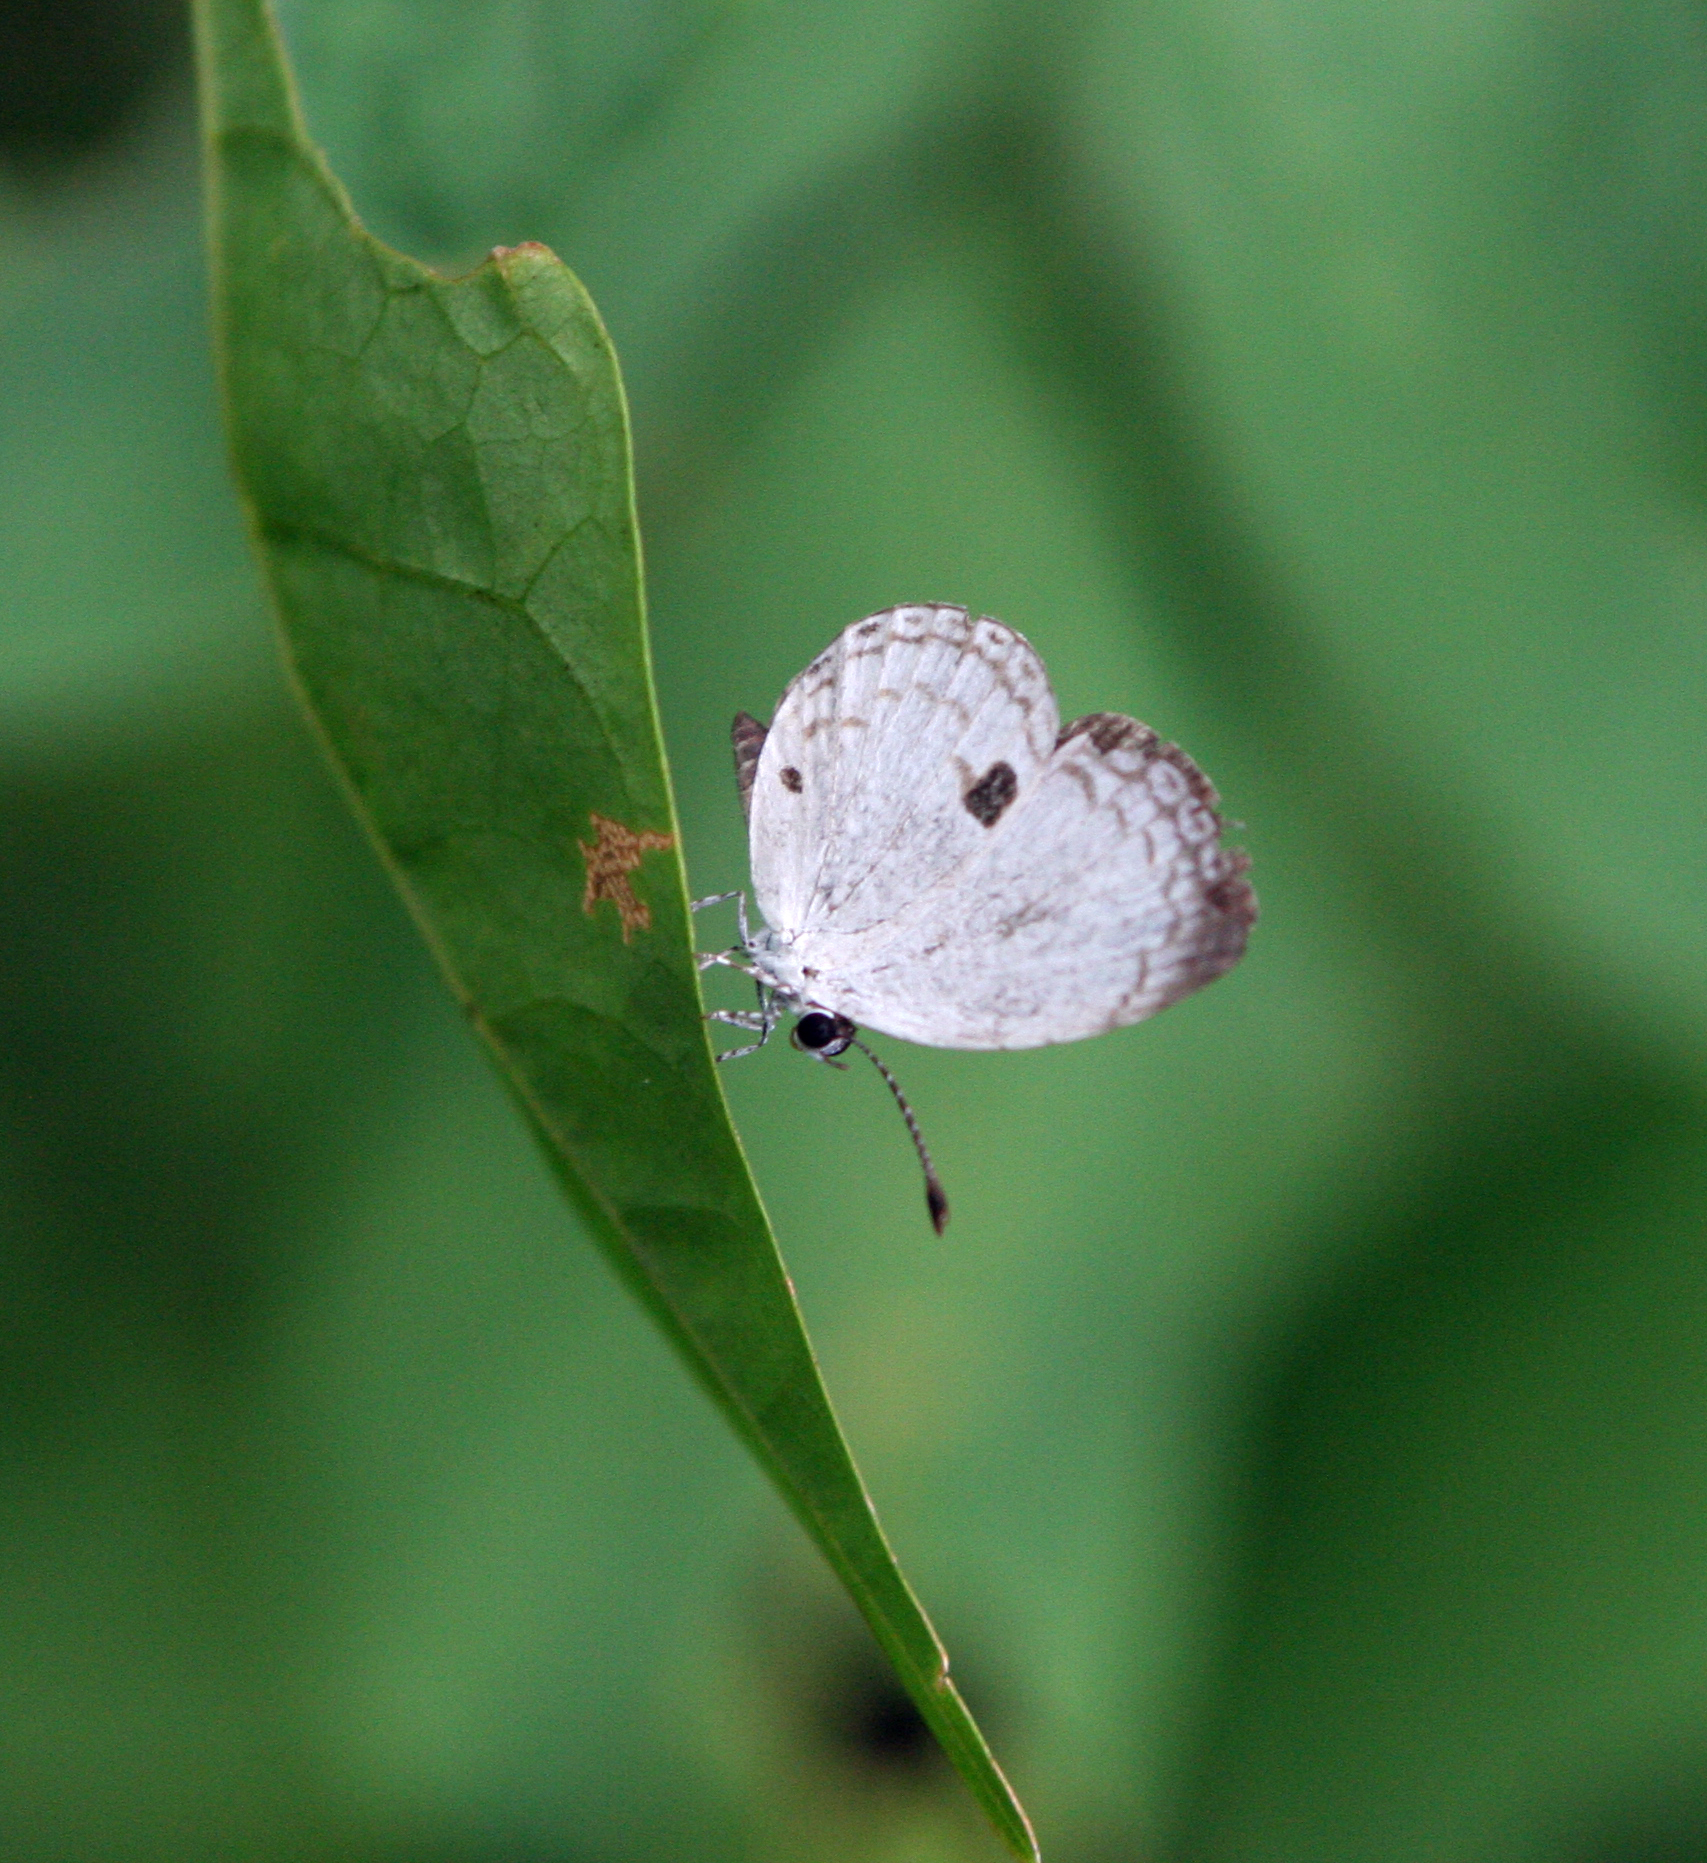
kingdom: Animalia
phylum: Arthropoda
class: Insecta
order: Lepidoptera
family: Lycaenidae
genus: Neopithecops
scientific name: Neopithecops zalmora
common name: Quaker
